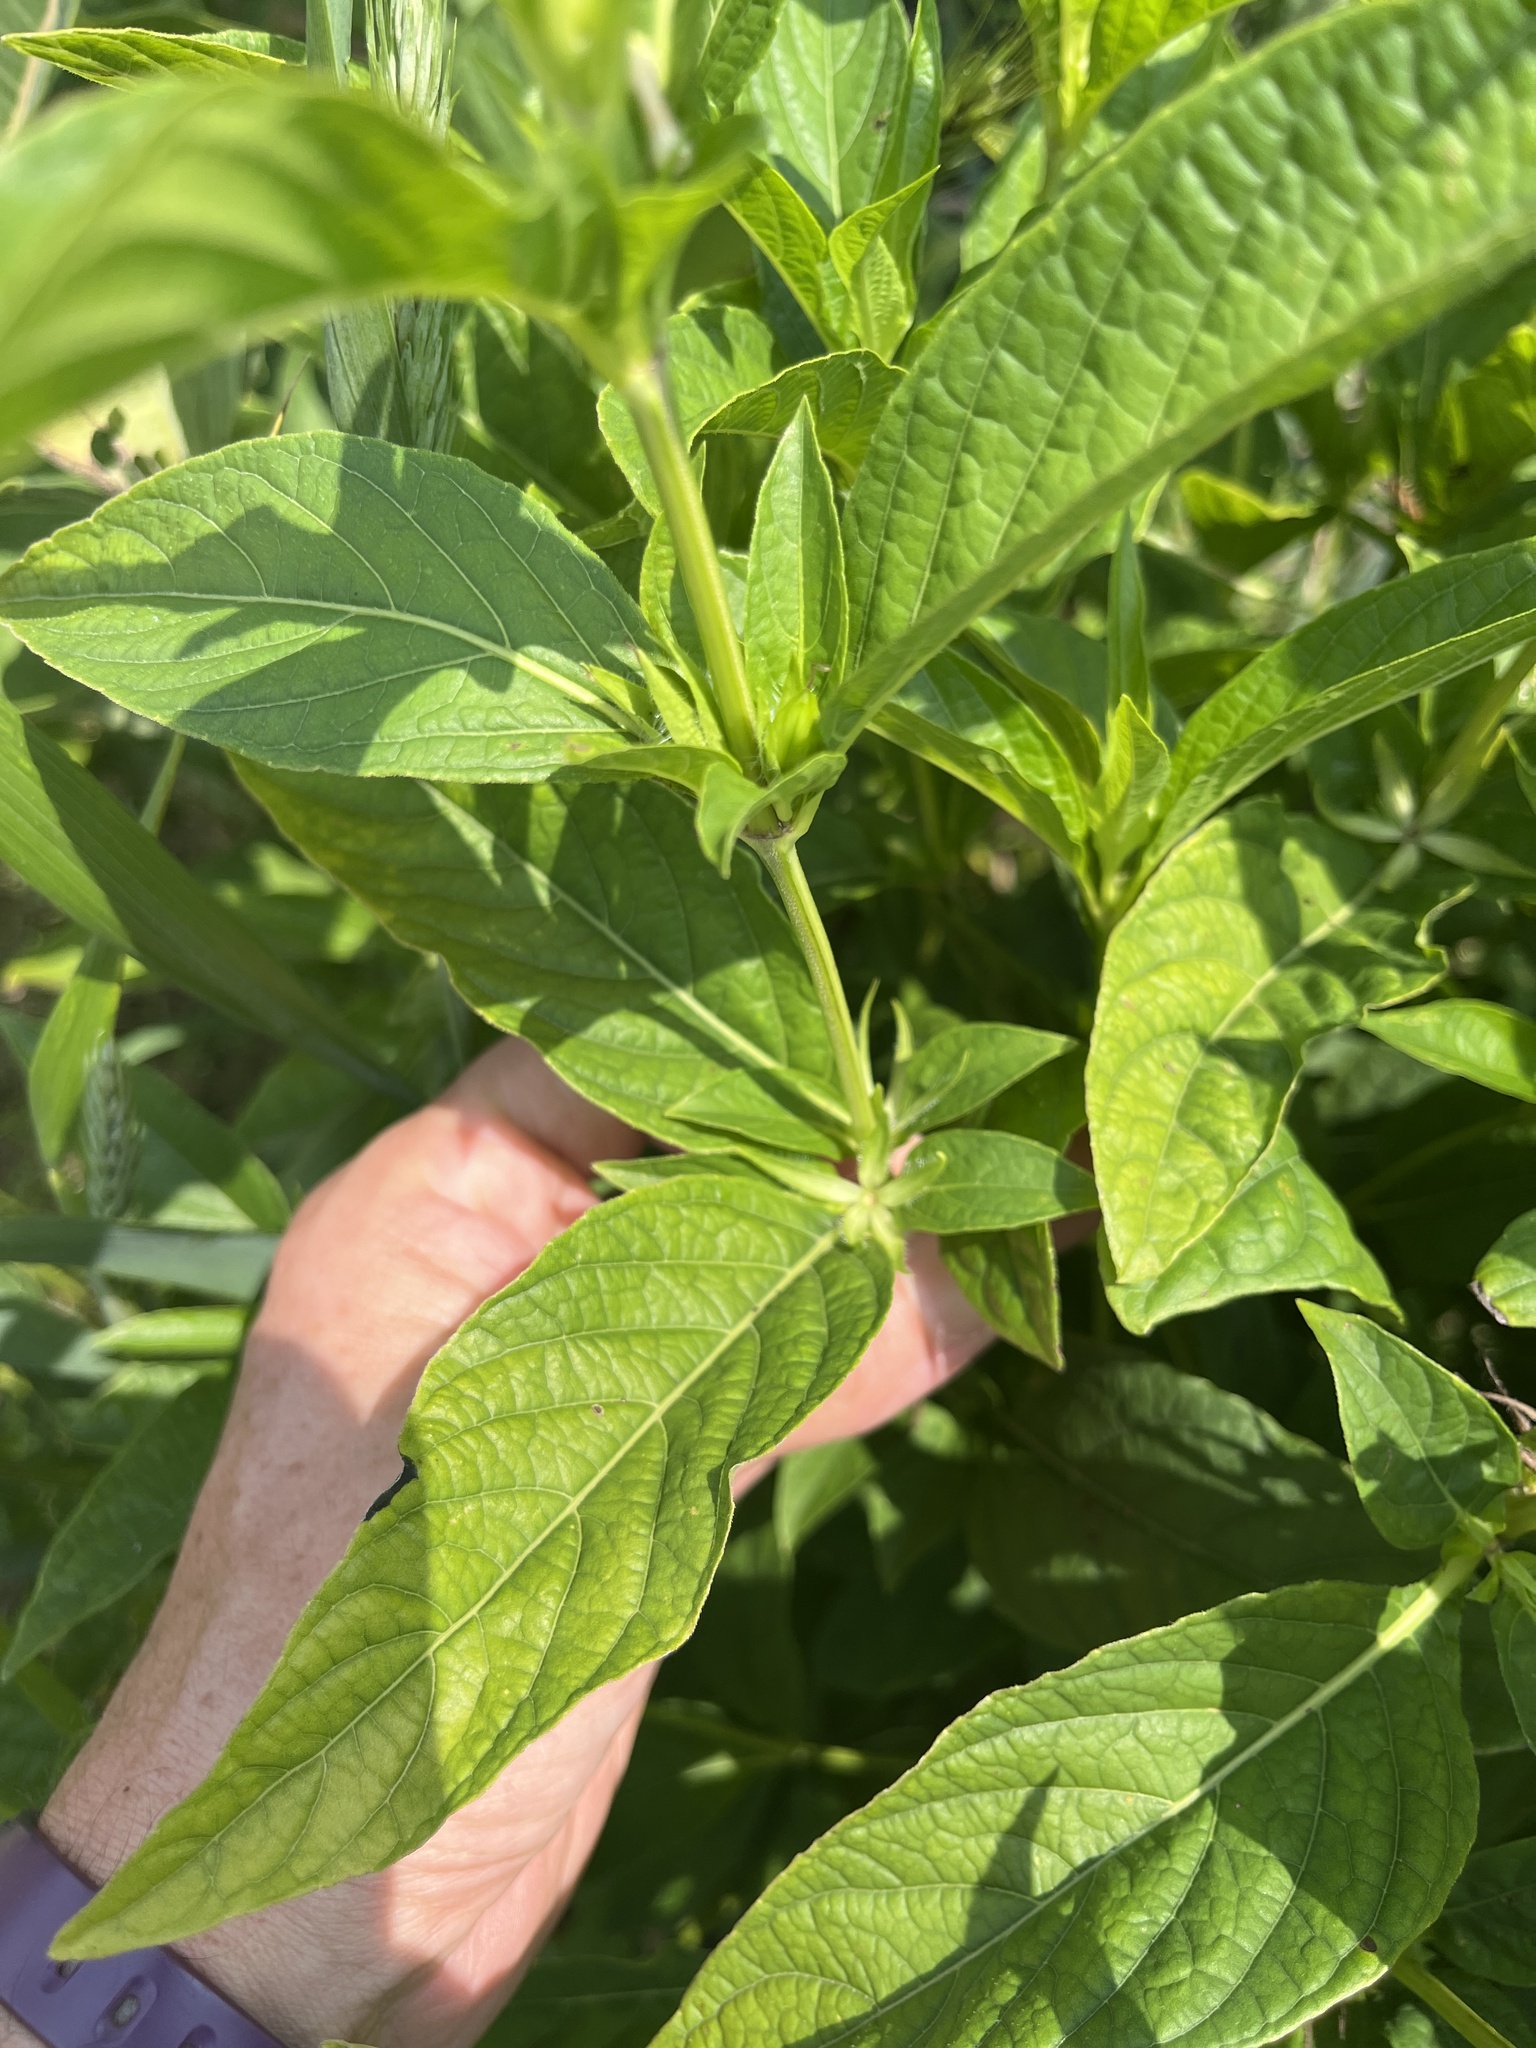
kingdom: Plantae
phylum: Tracheophyta
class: Magnoliopsida
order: Lamiales
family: Acanthaceae
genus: Ruellia
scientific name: Ruellia strepens
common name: Limestone wild petunia
